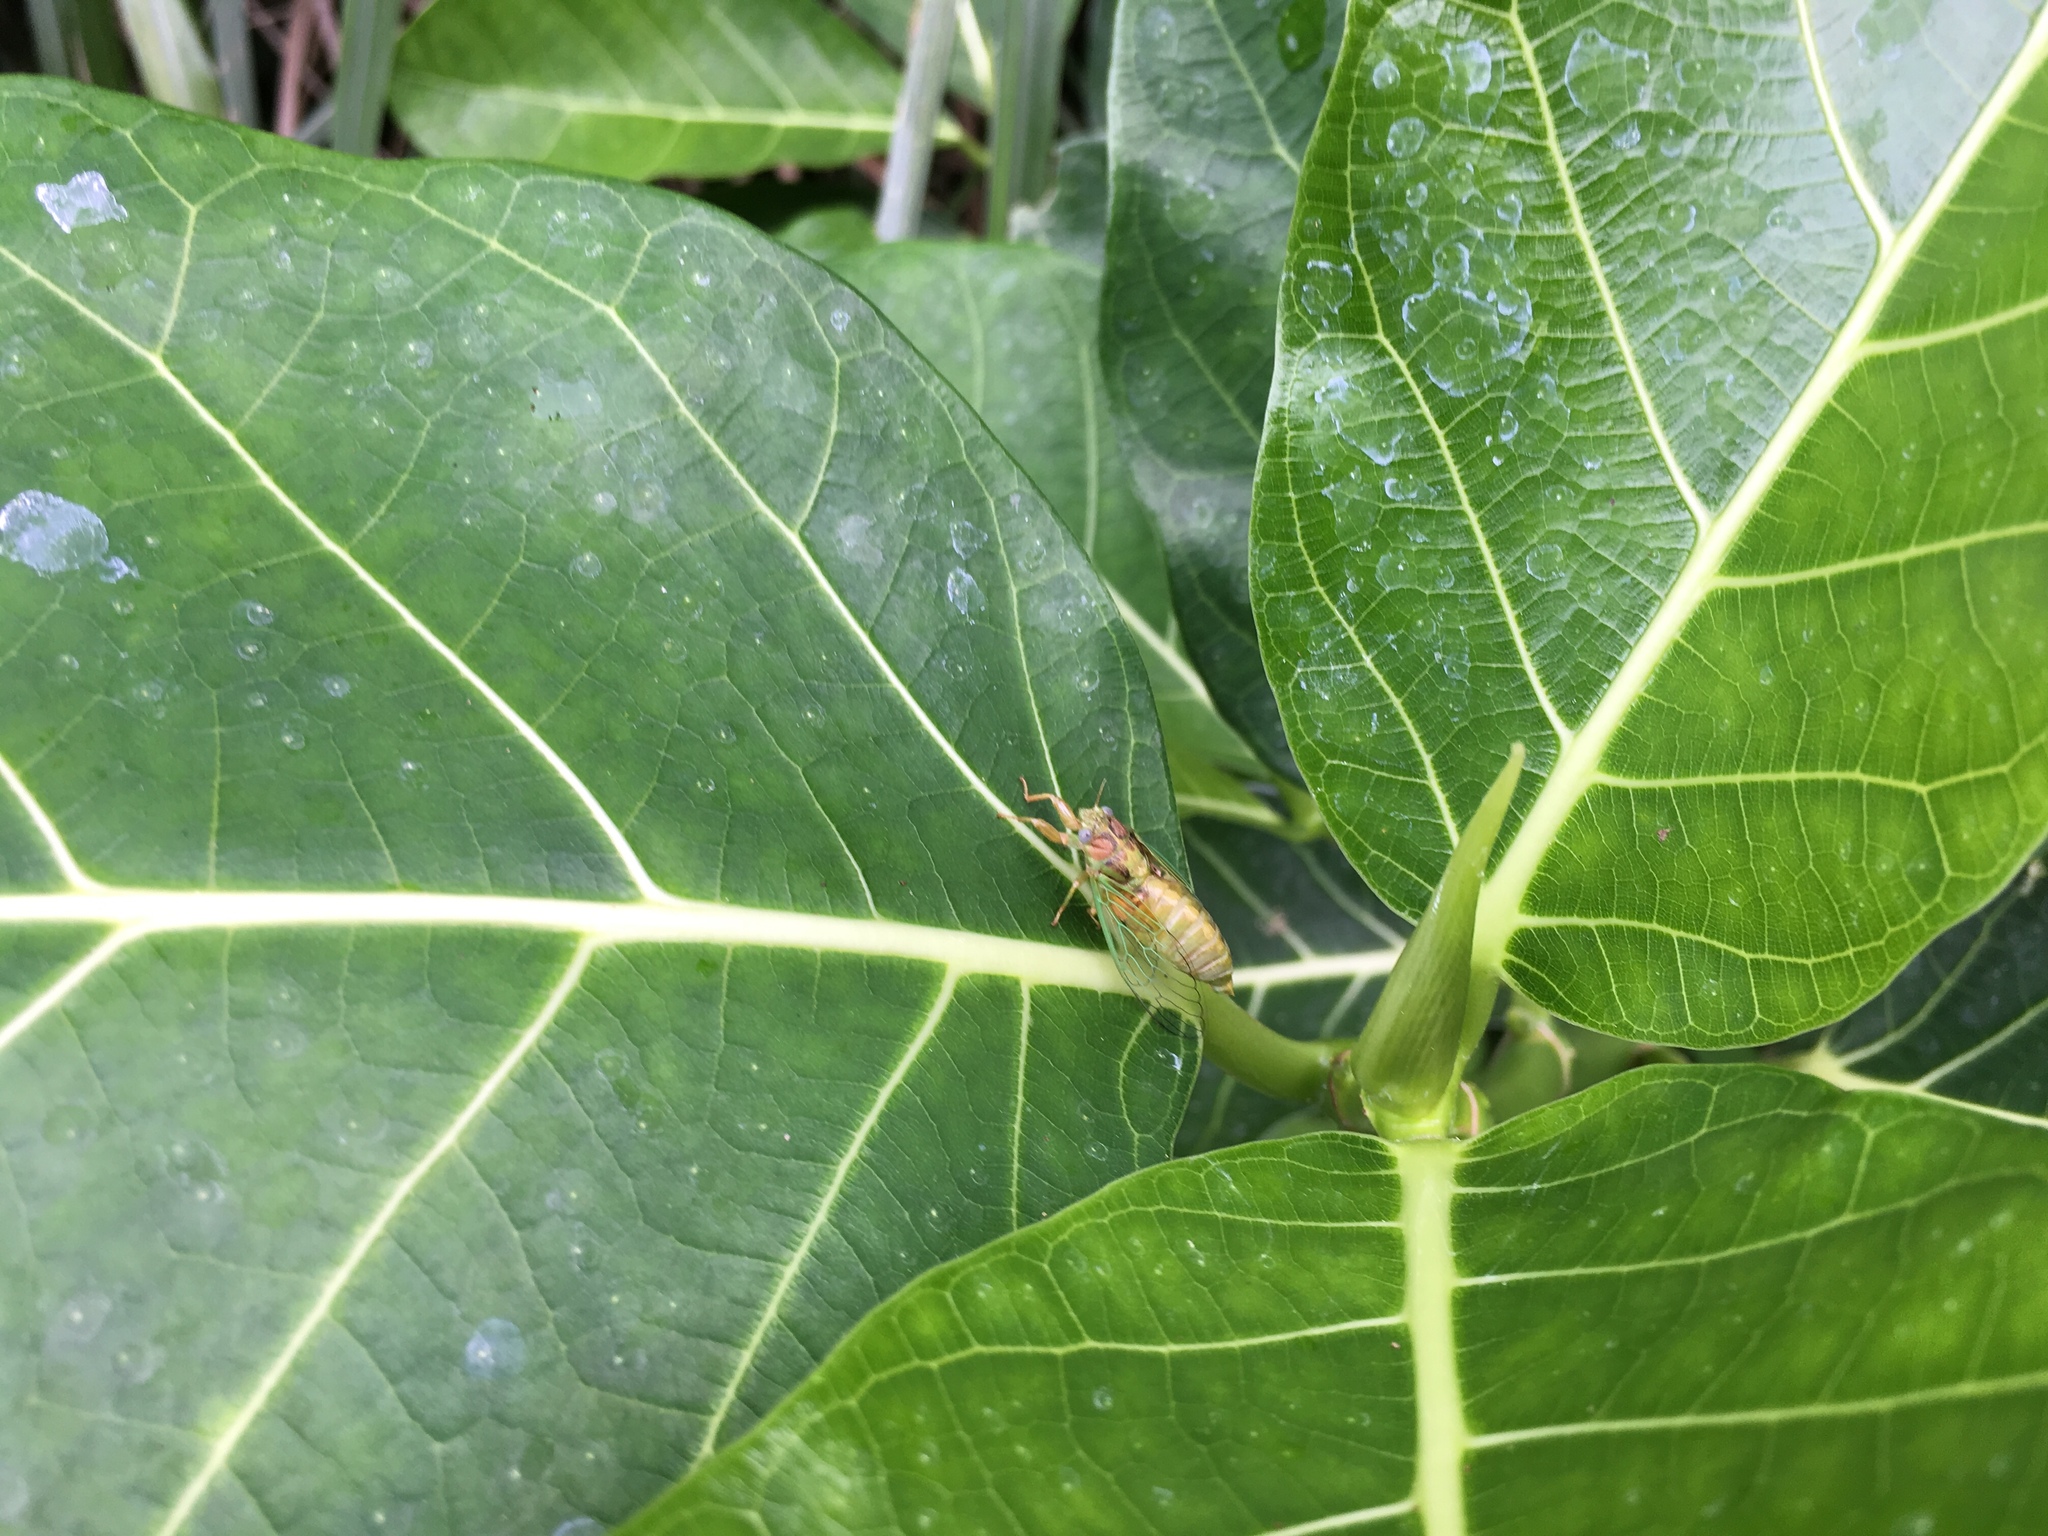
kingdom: Animalia
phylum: Arthropoda
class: Insecta
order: Hemiptera
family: Cicadidae
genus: Mogannia
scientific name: Mogannia hebes
